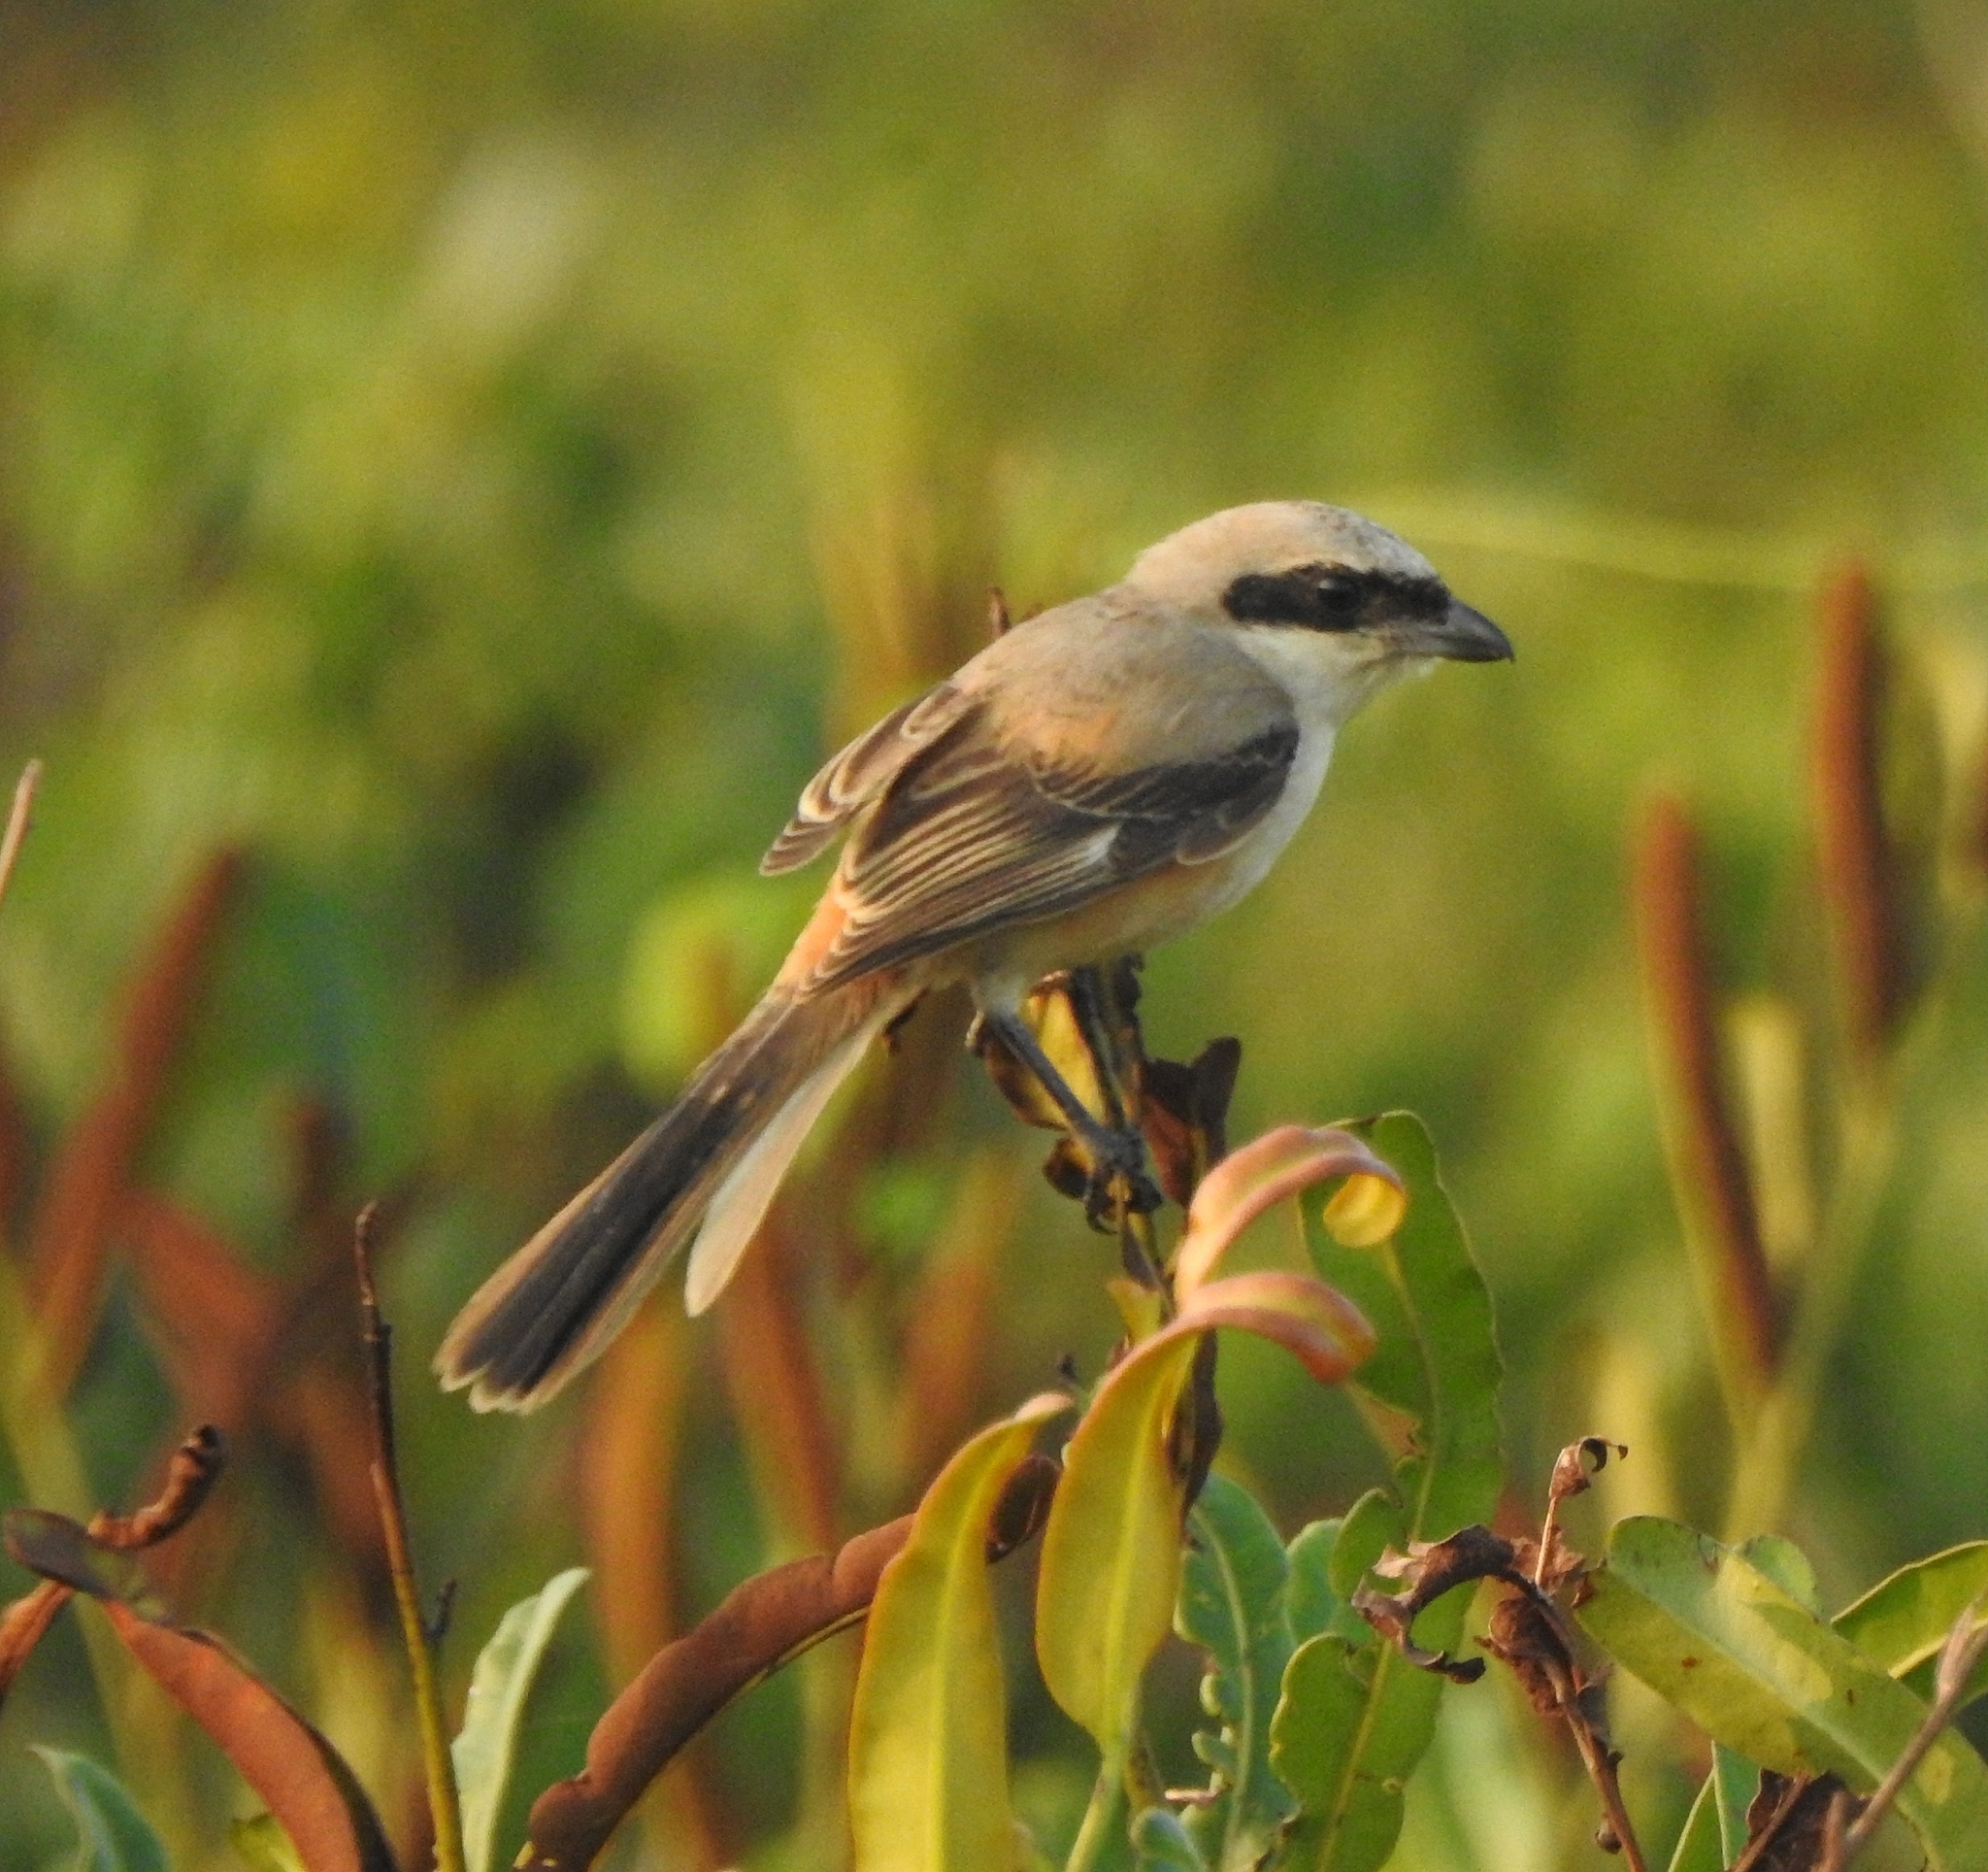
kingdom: Animalia
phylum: Chordata
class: Aves
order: Passeriformes
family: Laniidae
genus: Lanius
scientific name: Lanius schach
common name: Long-tailed shrike
